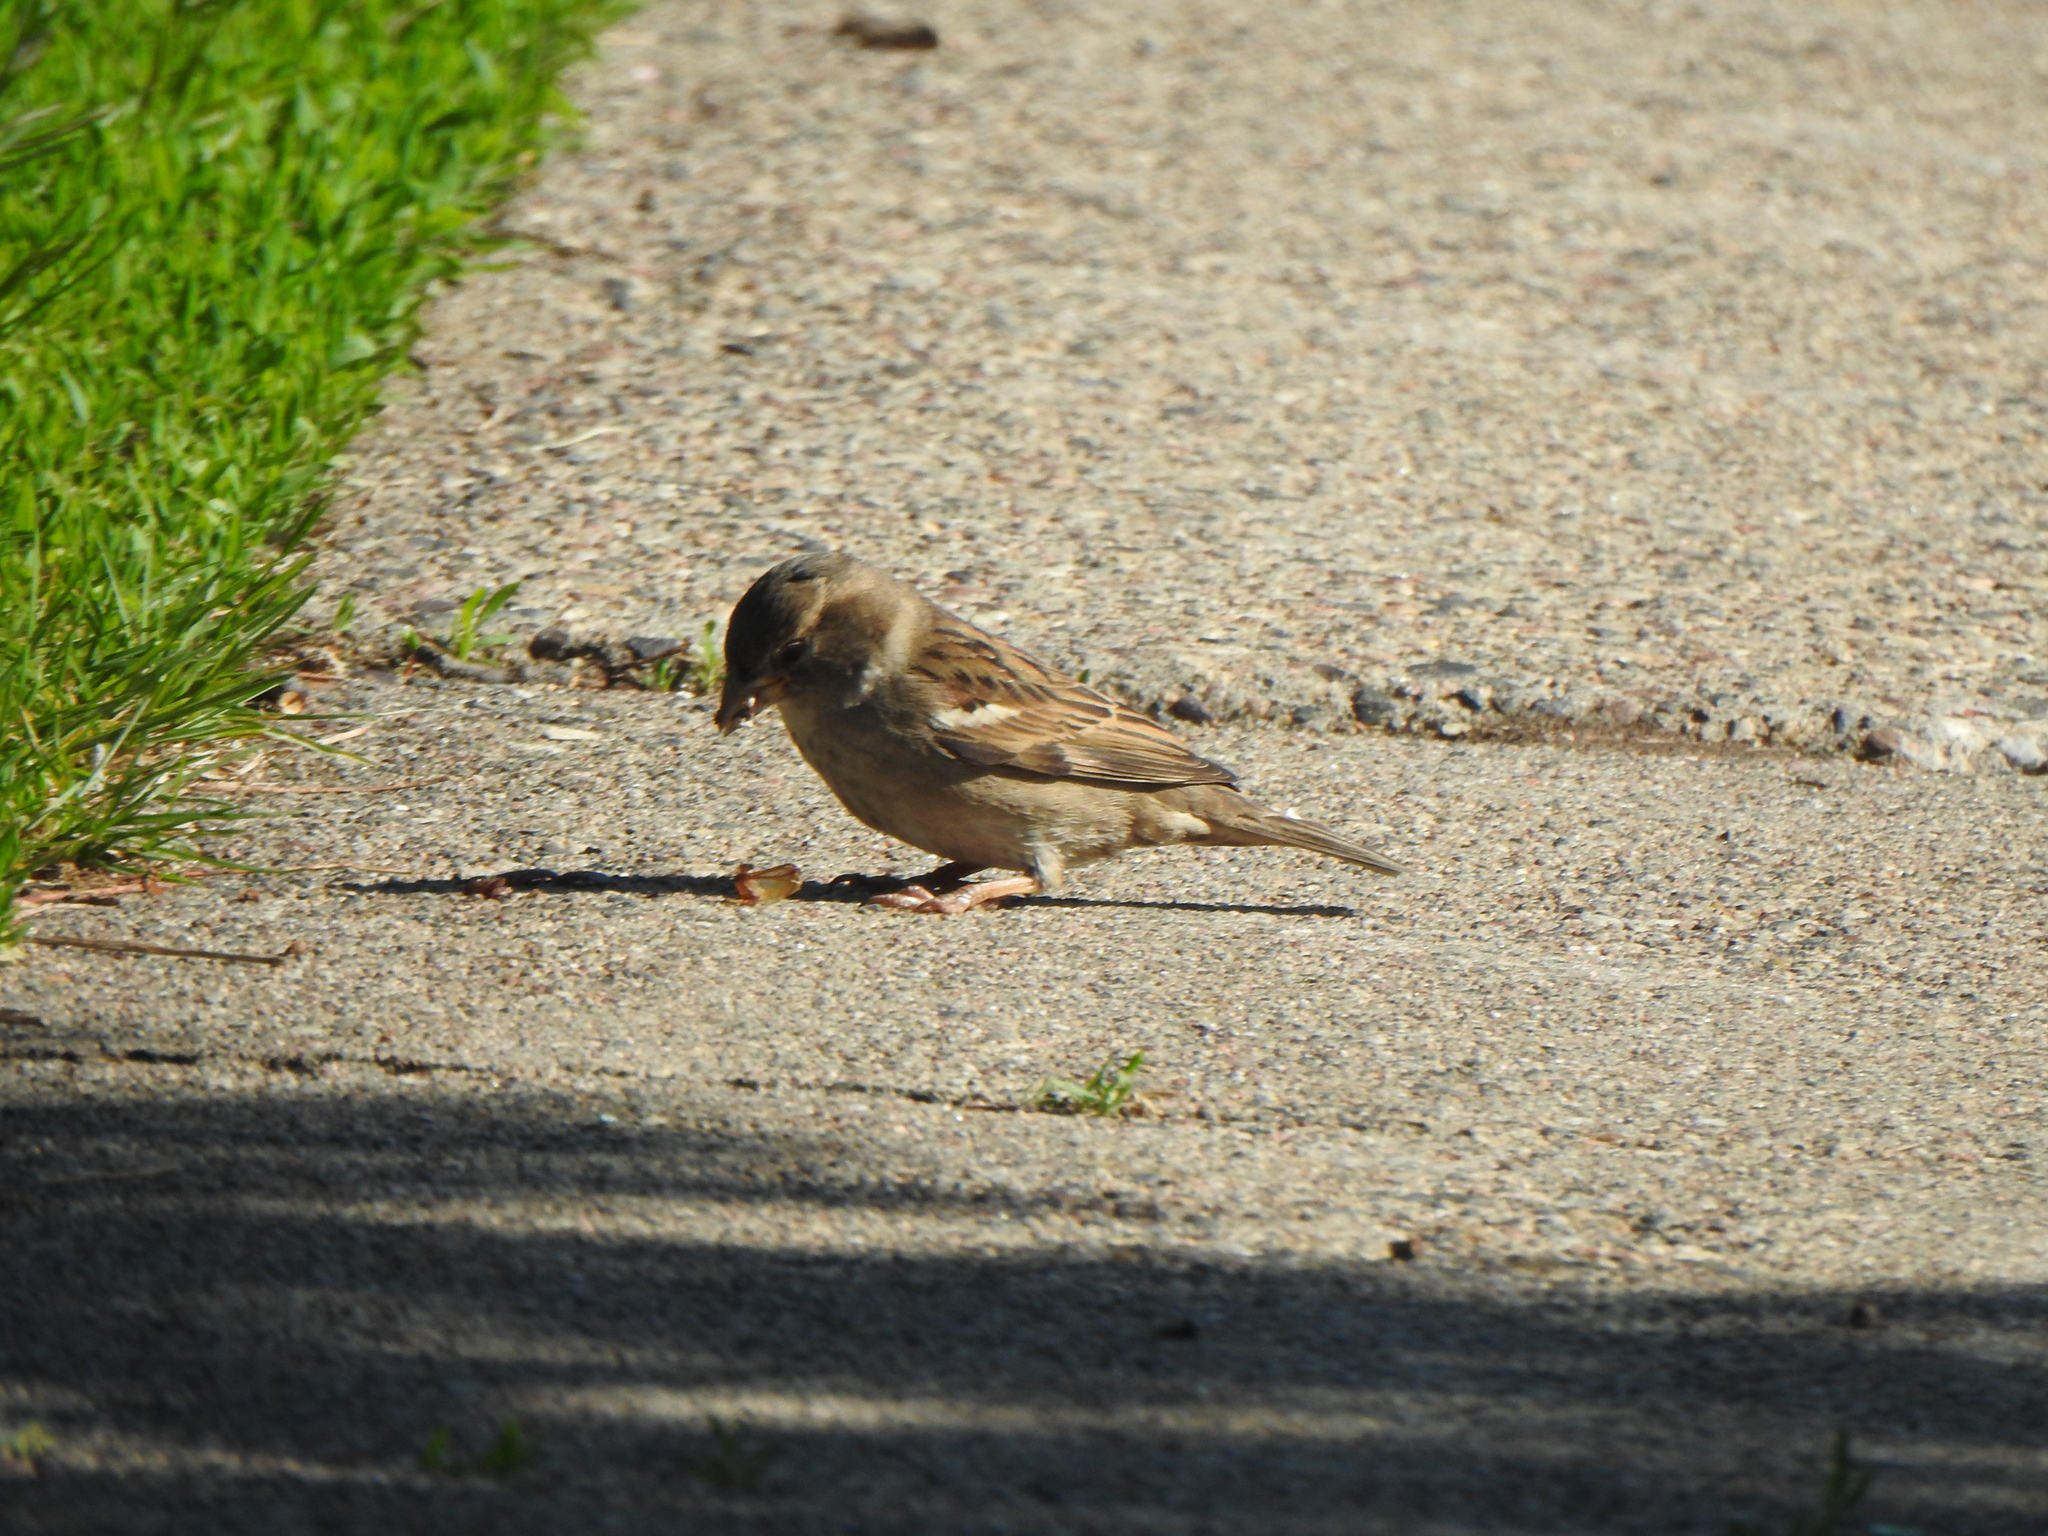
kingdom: Animalia
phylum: Chordata
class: Aves
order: Passeriformes
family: Passeridae
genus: Passer
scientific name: Passer domesticus
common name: House sparrow
